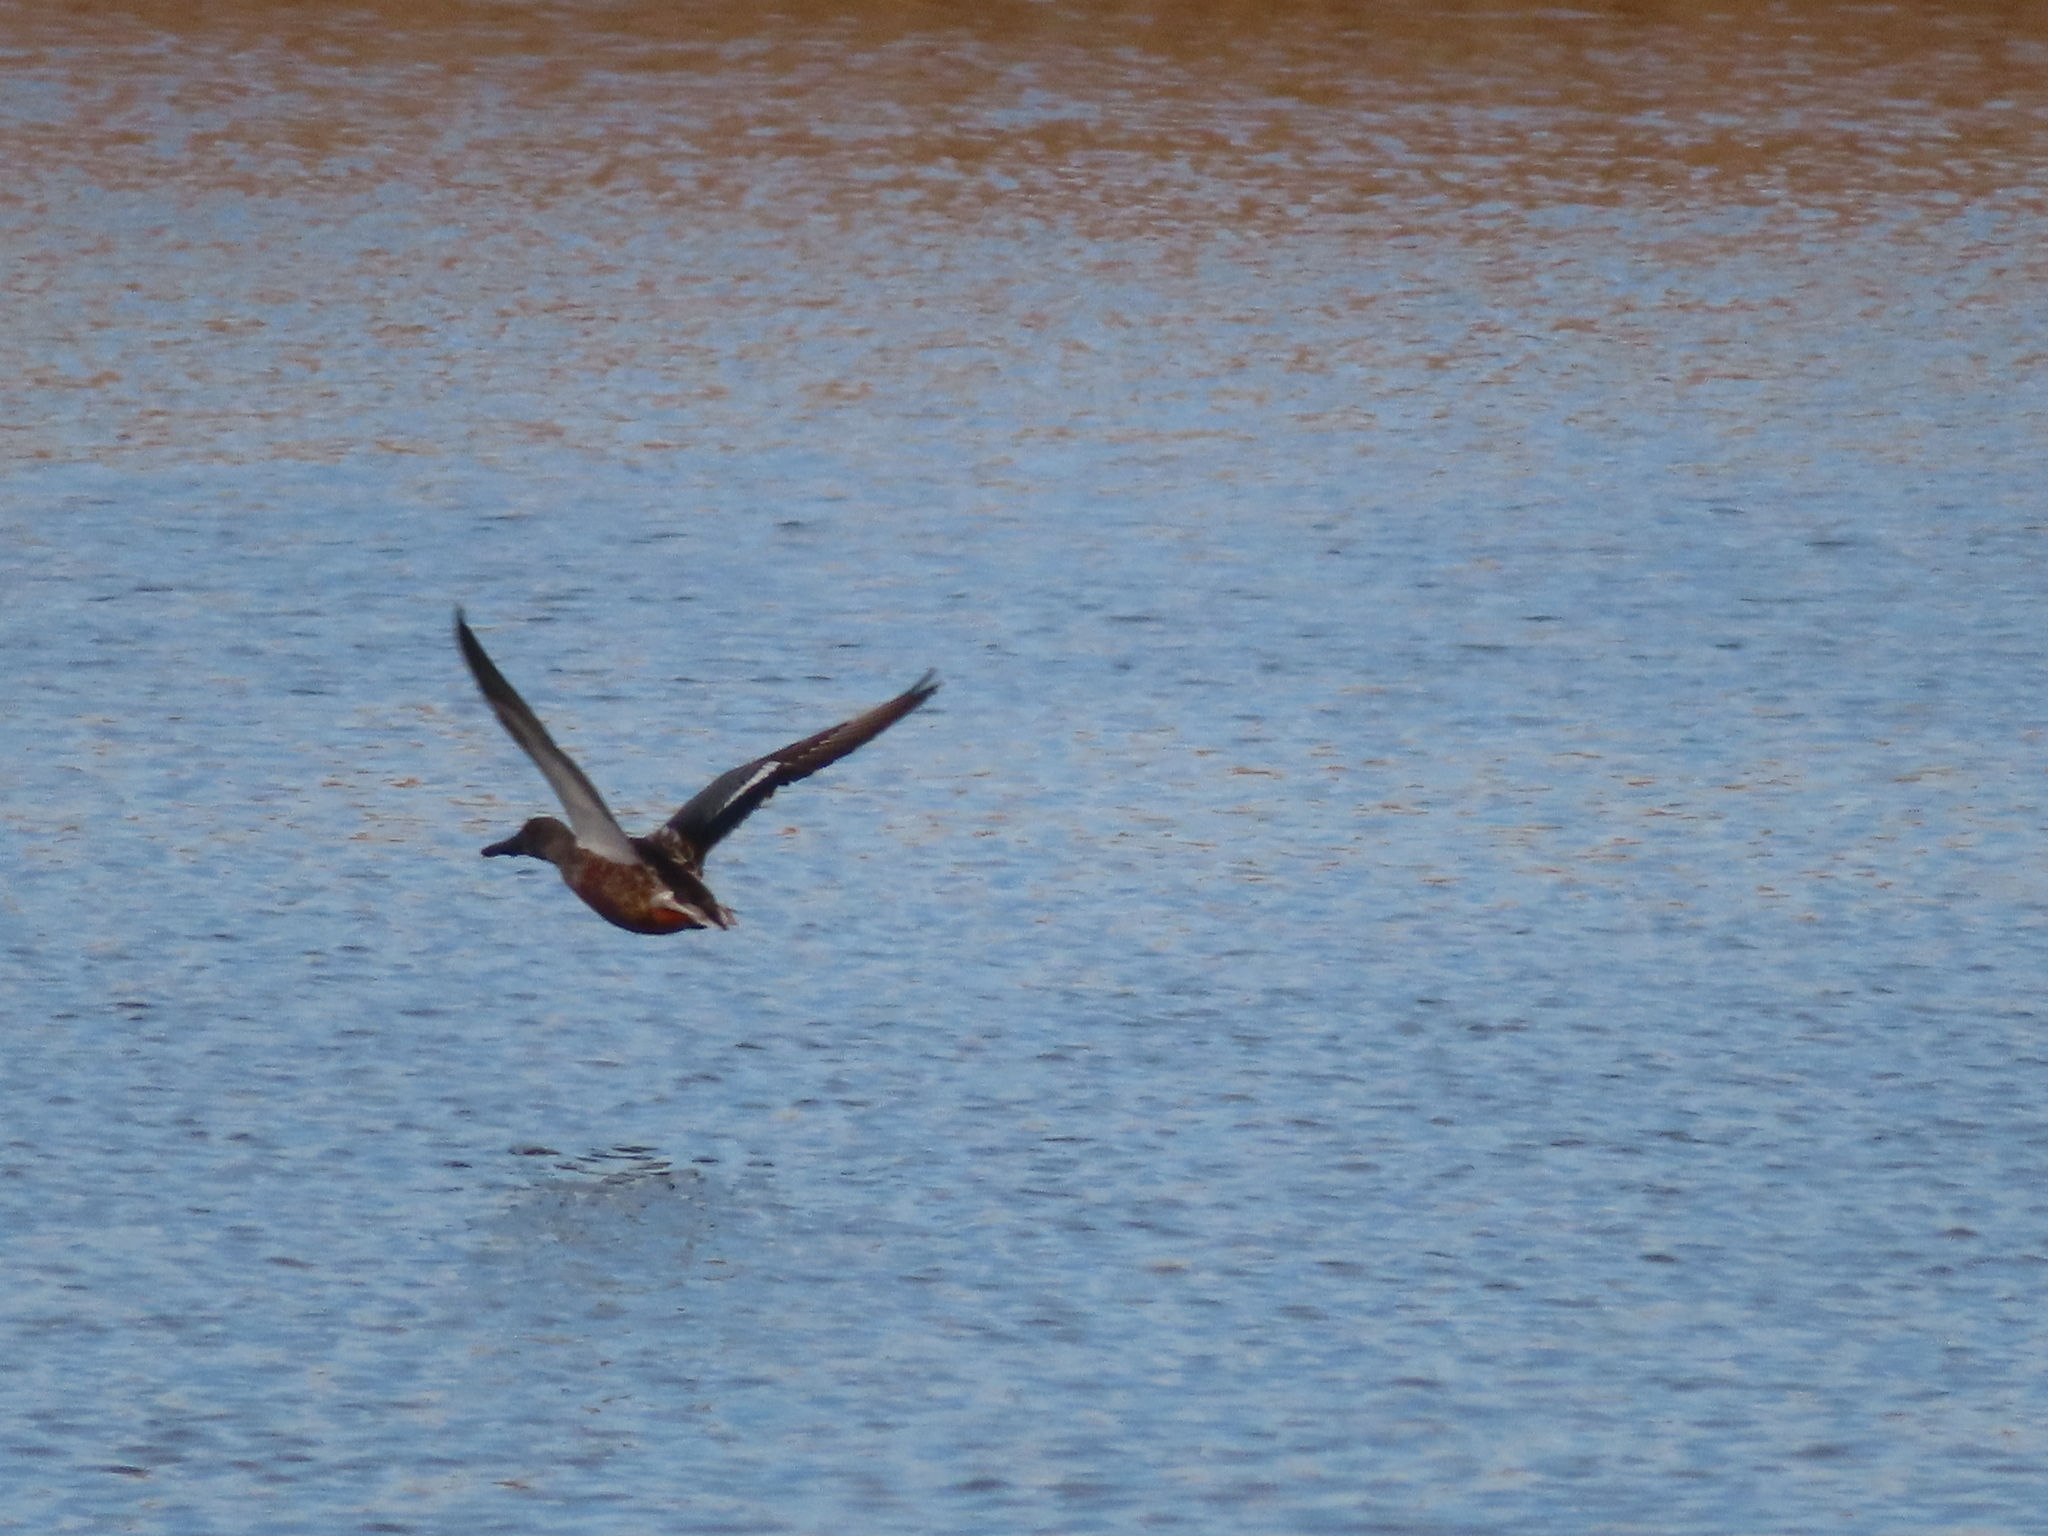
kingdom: Animalia
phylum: Chordata
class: Aves
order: Anseriformes
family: Anatidae
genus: Spatula
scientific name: Spatula clypeata
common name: Northern shoveler
